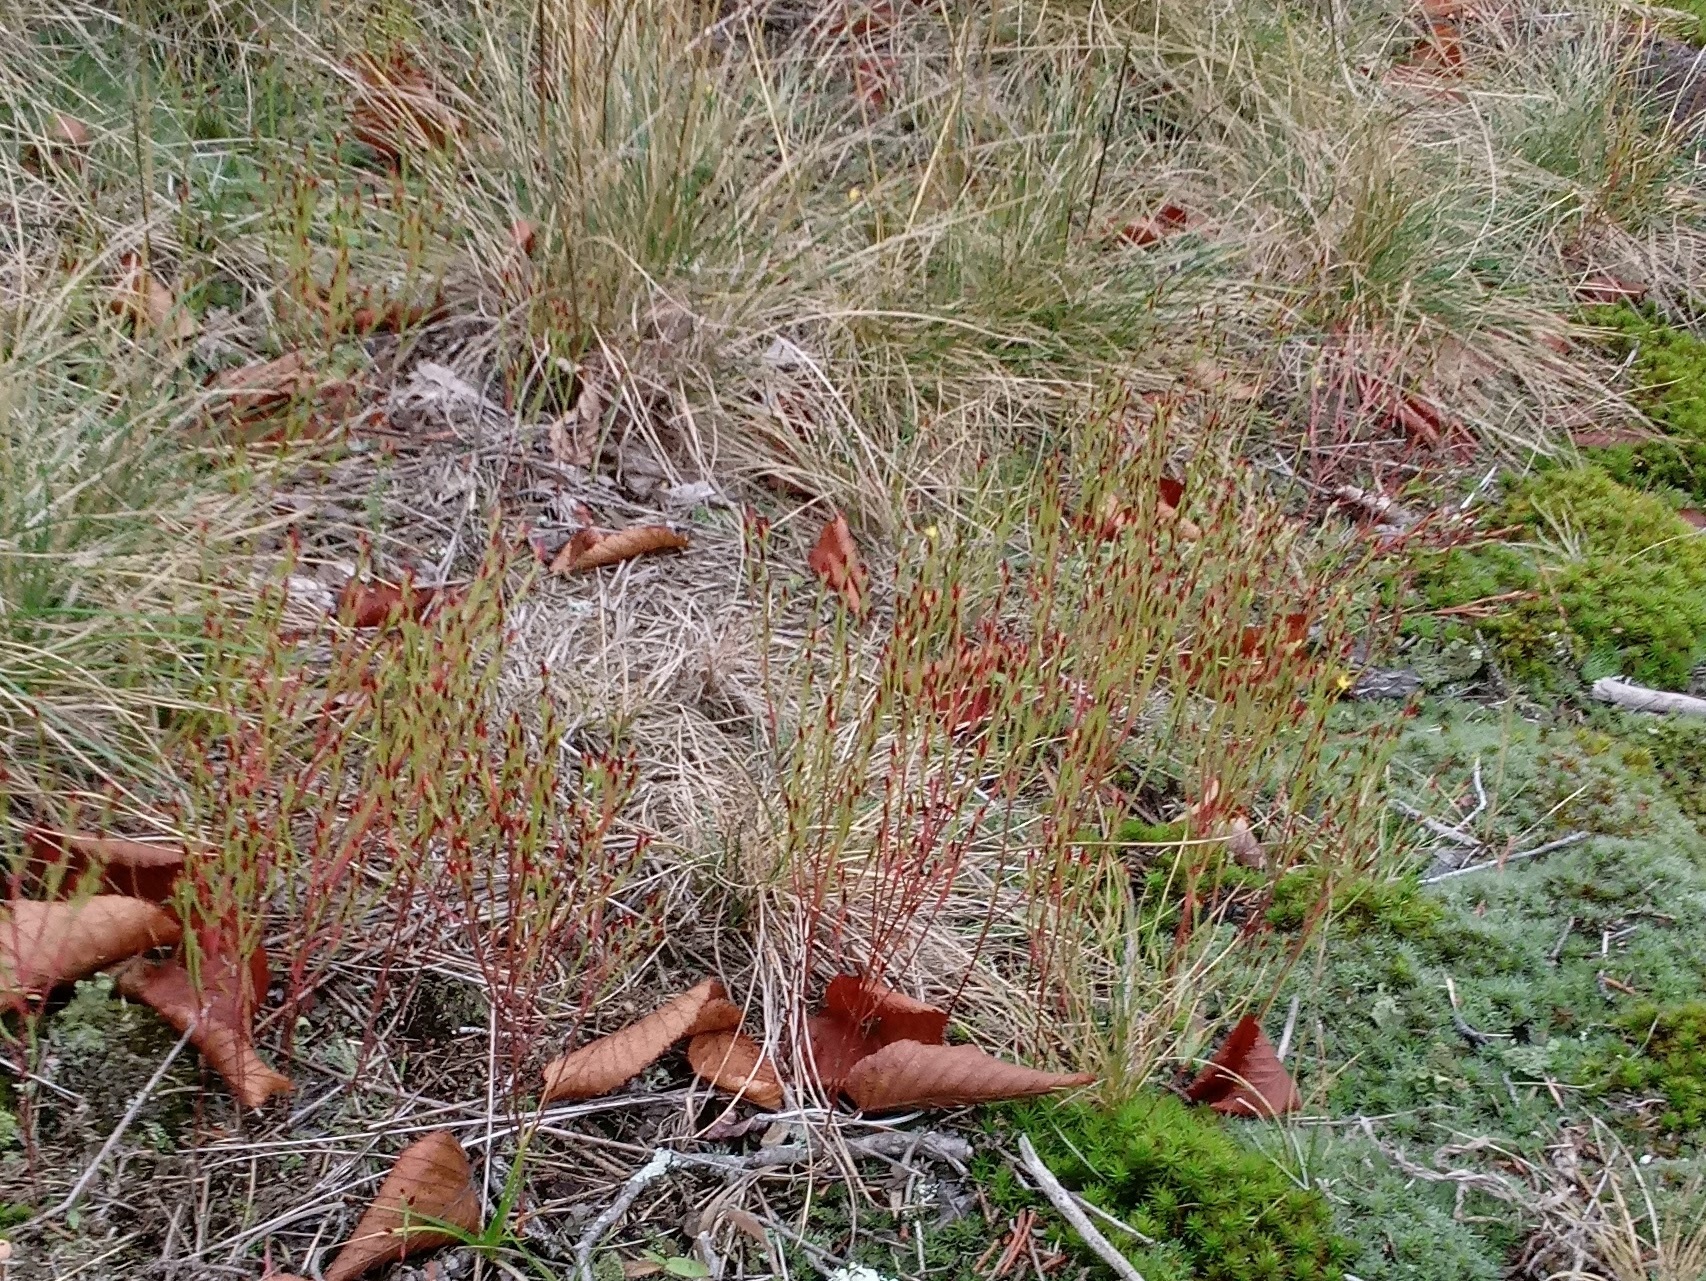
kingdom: Plantae
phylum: Tracheophyta
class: Magnoliopsida
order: Malpighiales
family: Hypericaceae
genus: Hypericum
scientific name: Hypericum gentianoides
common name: Gentian-leaved st. john's-wort
